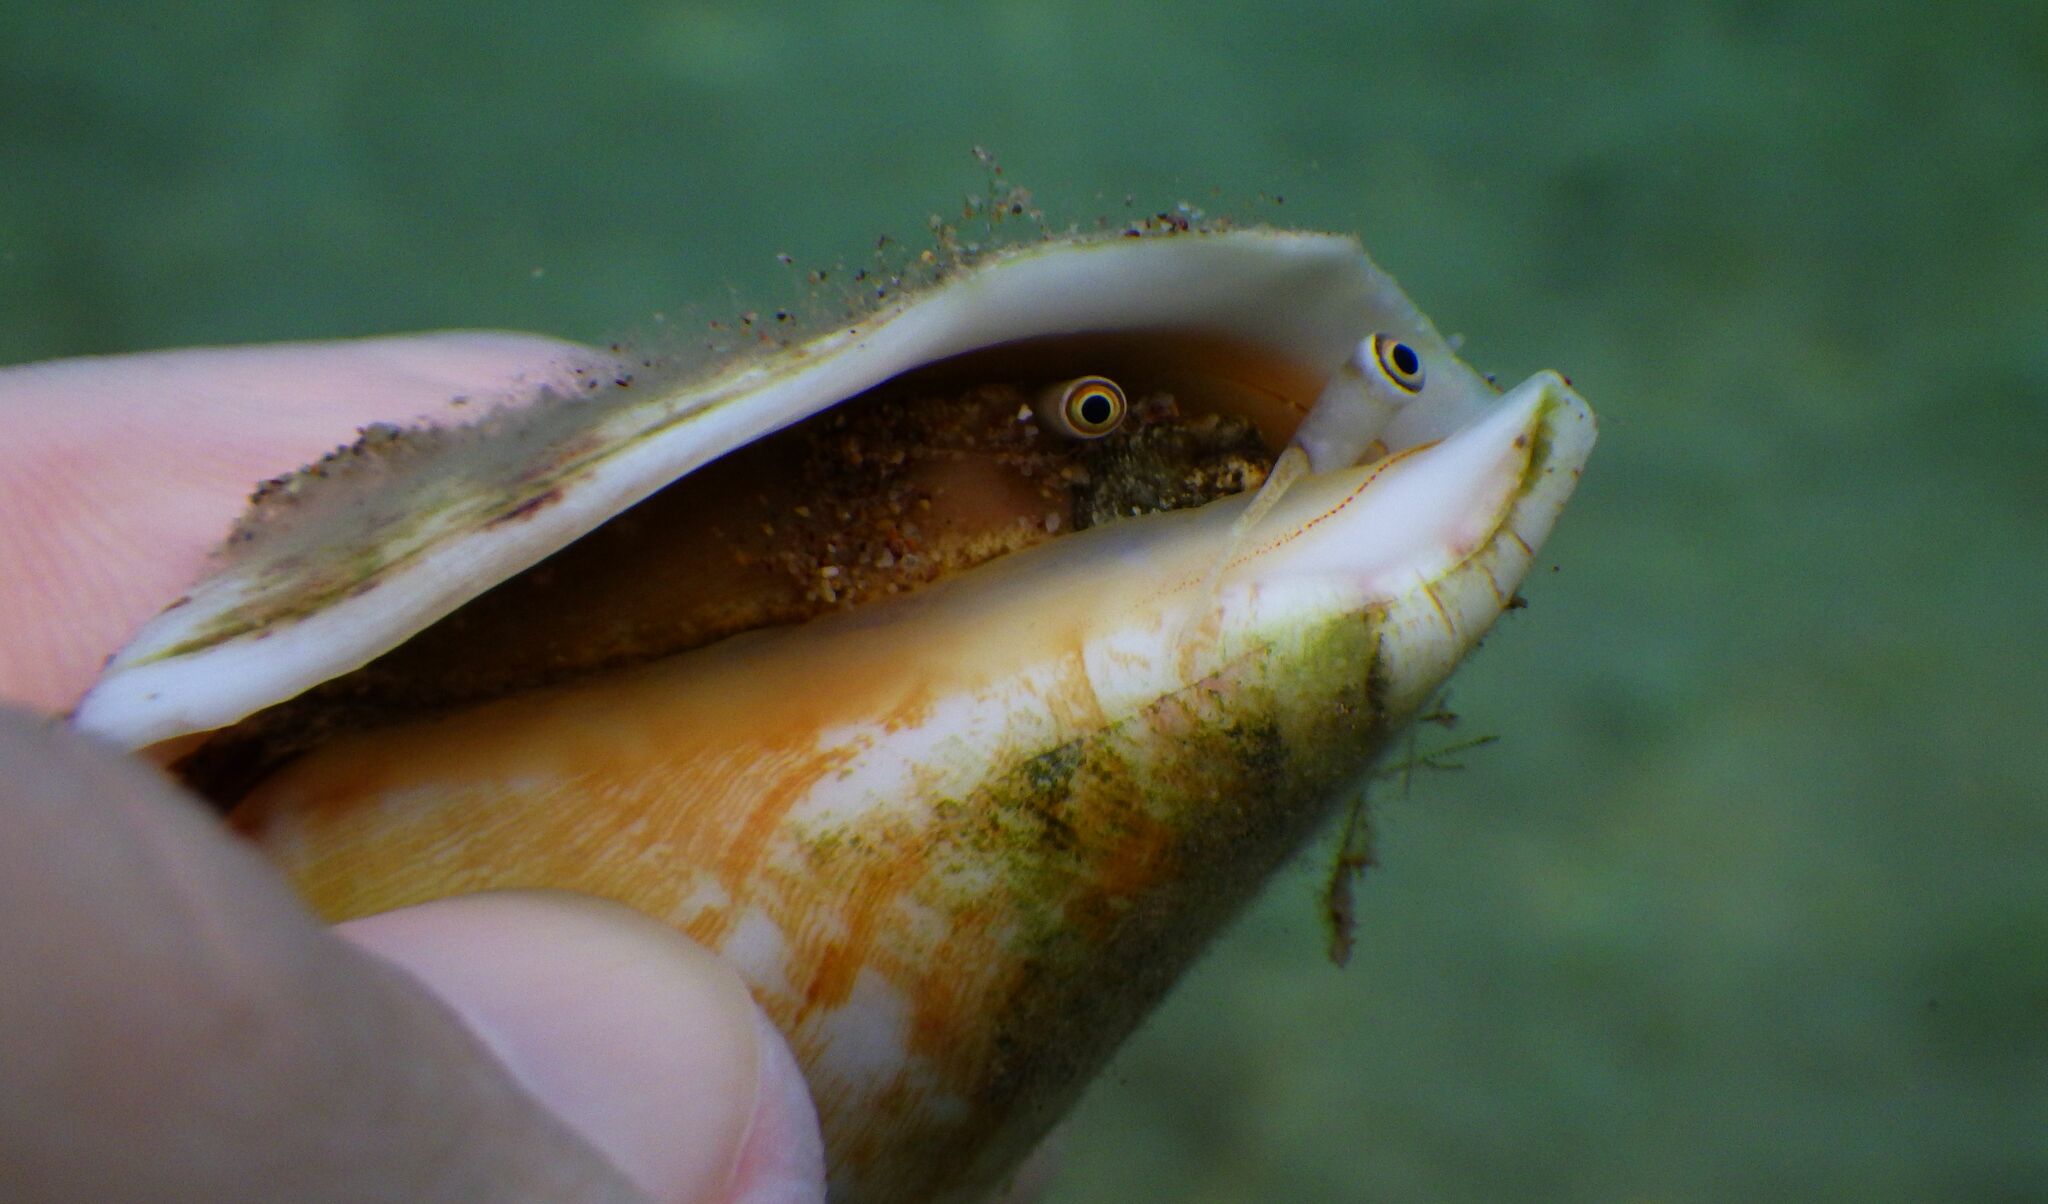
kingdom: Animalia
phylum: Mollusca
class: Gastropoda
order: Littorinimorpha
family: Strombidae
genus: Conomurex
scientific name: Conomurex persicus
